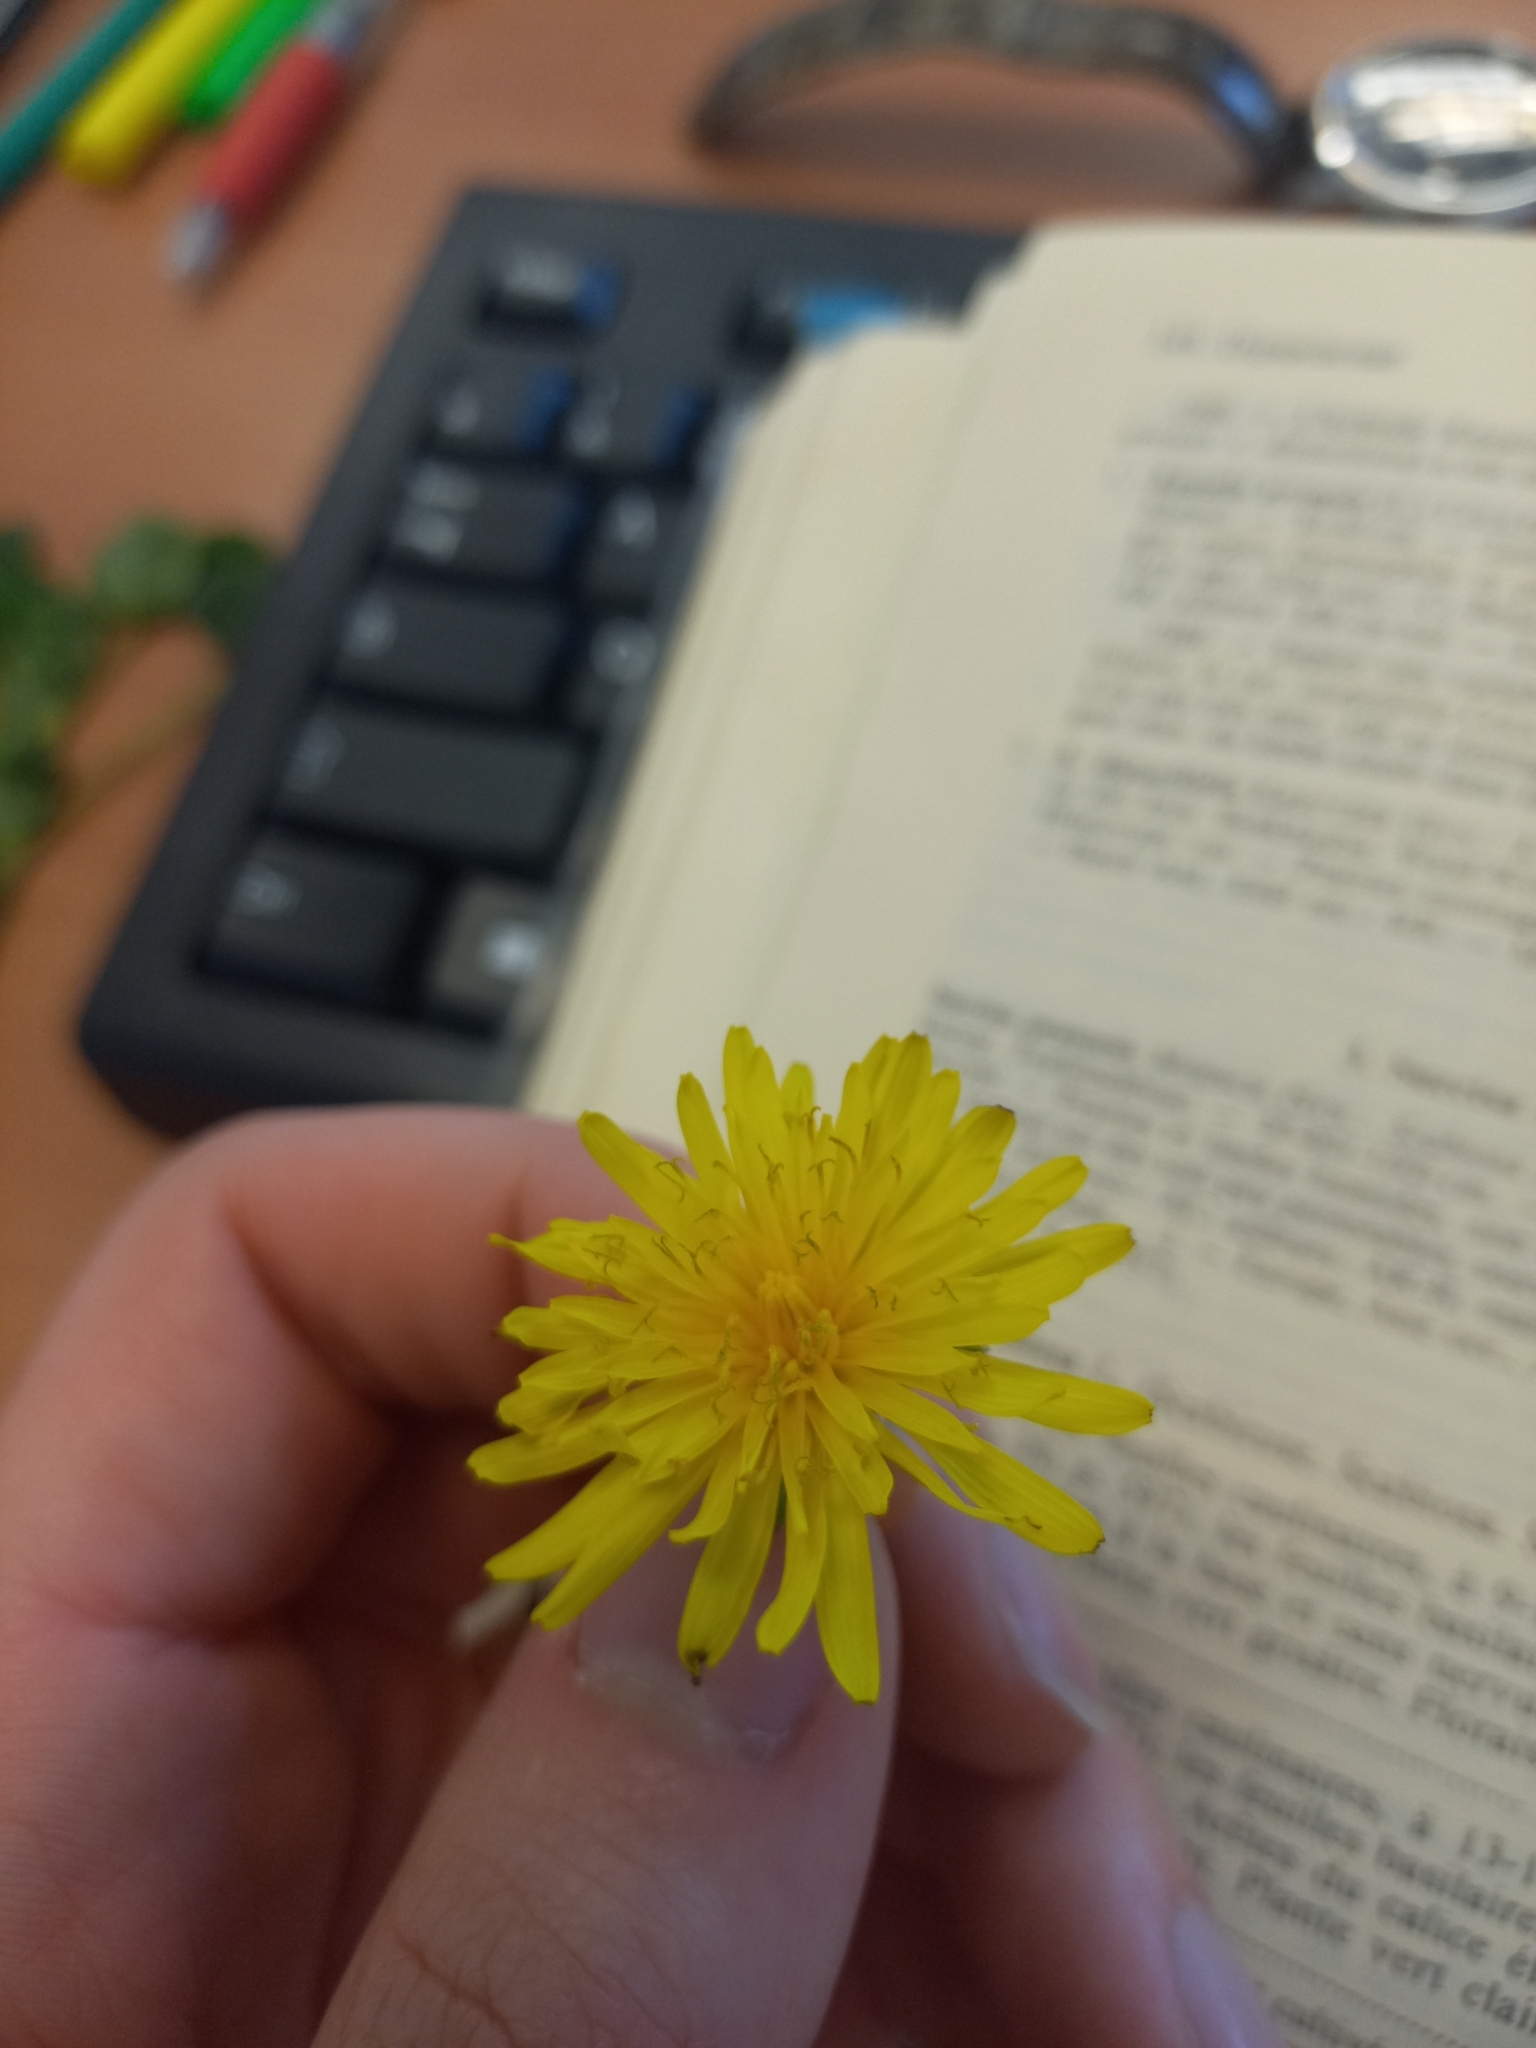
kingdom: Plantae
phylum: Tracheophyta
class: Magnoliopsida
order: Asterales
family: Asteraceae
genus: Taraxacum
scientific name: Taraxacum erythrospermum
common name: Rock dandelion
